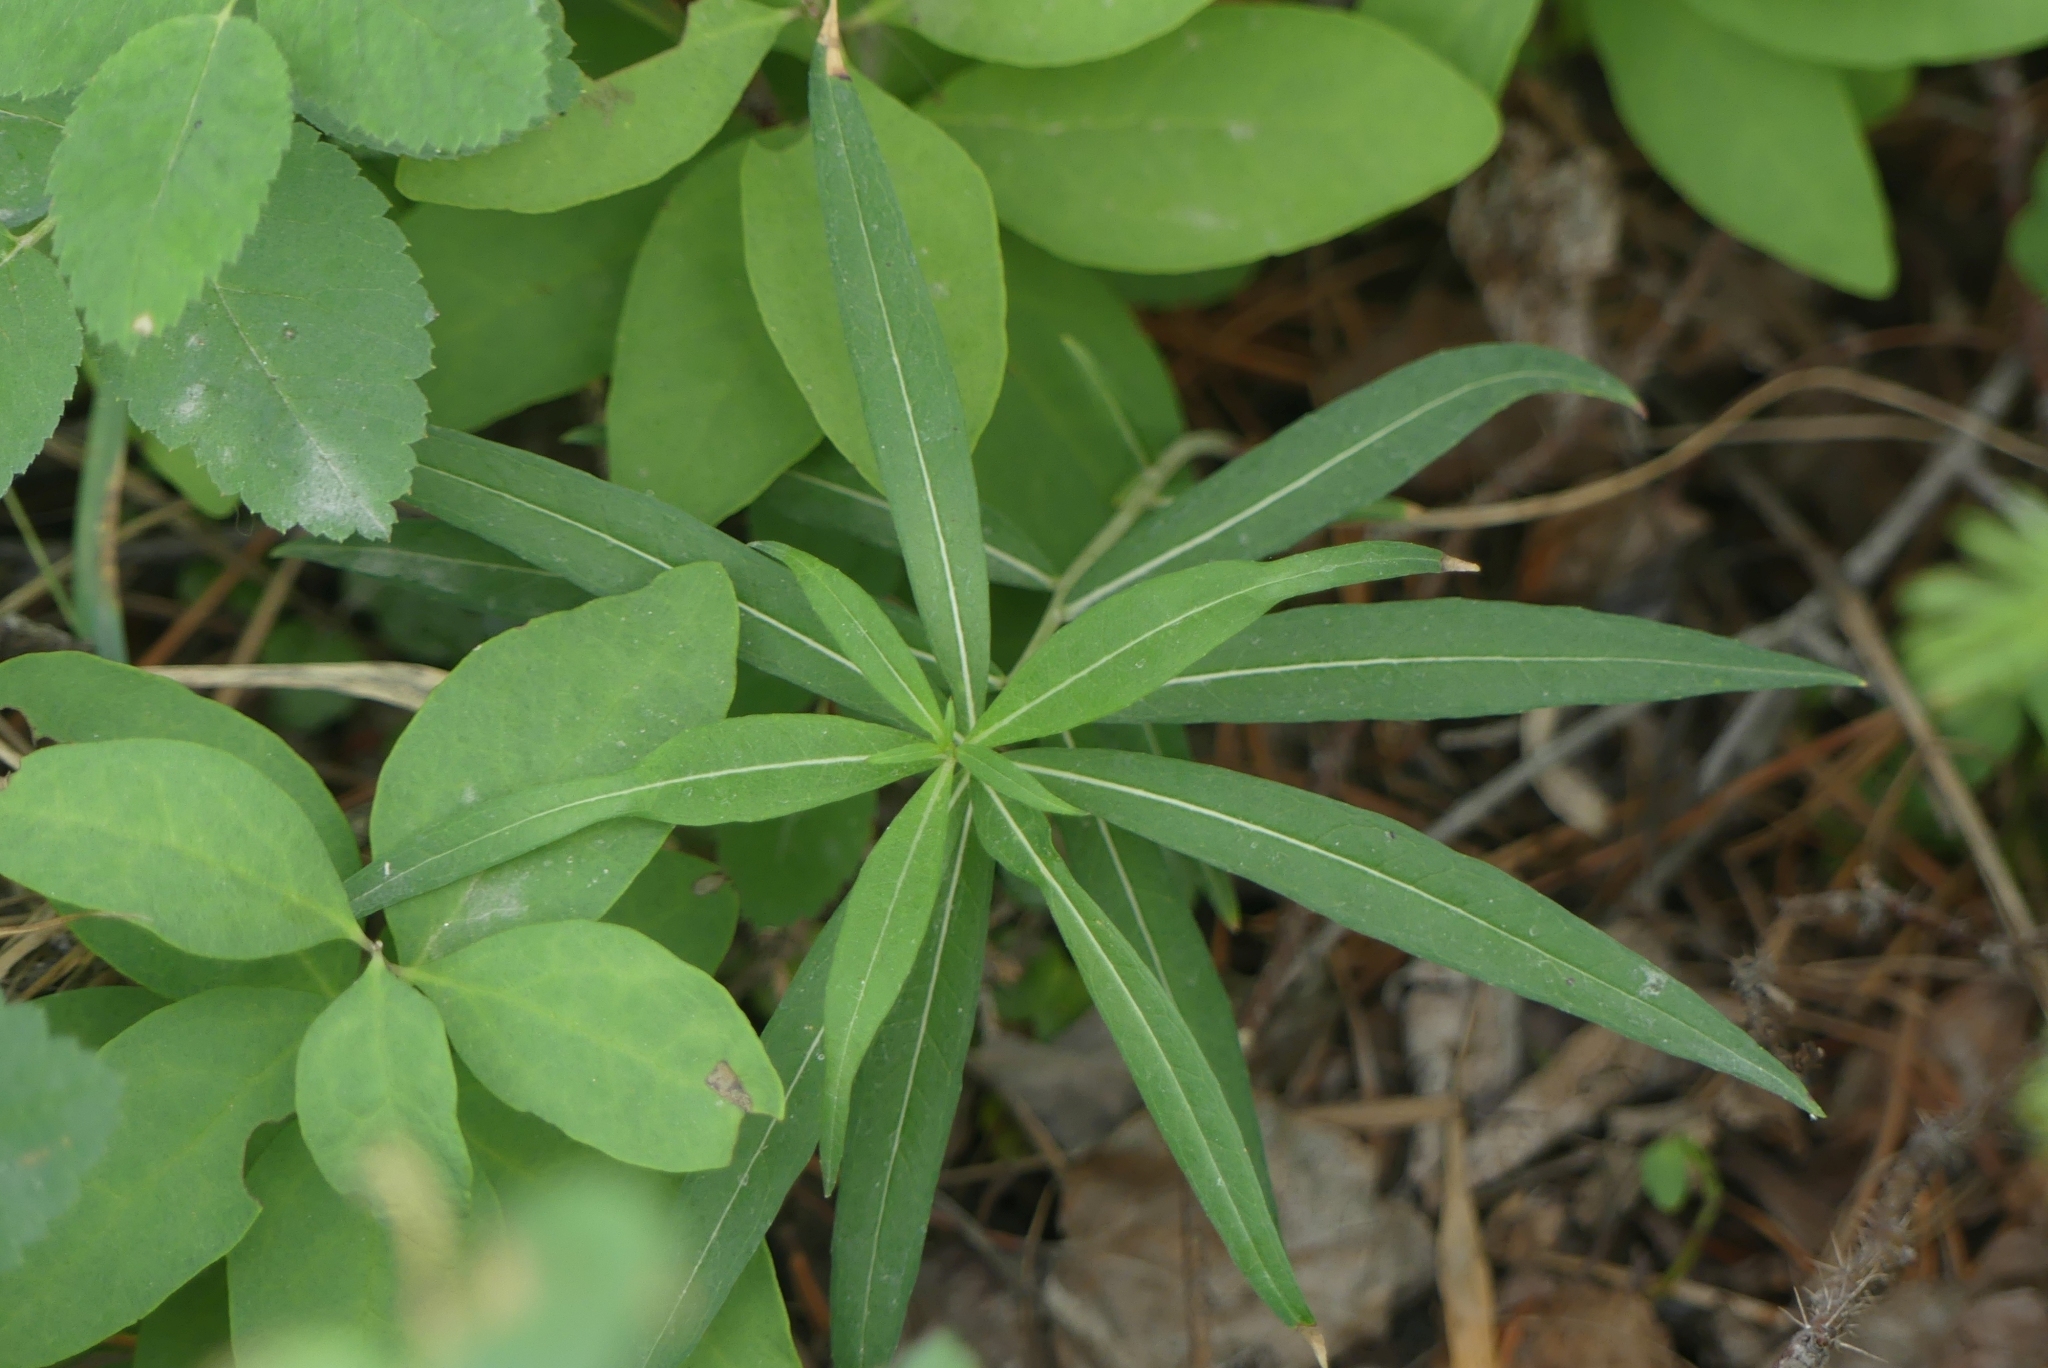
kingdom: Plantae
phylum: Tracheophyta
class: Magnoliopsida
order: Myrtales
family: Onagraceae
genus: Chamaenerion
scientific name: Chamaenerion angustifolium
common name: Fireweed
